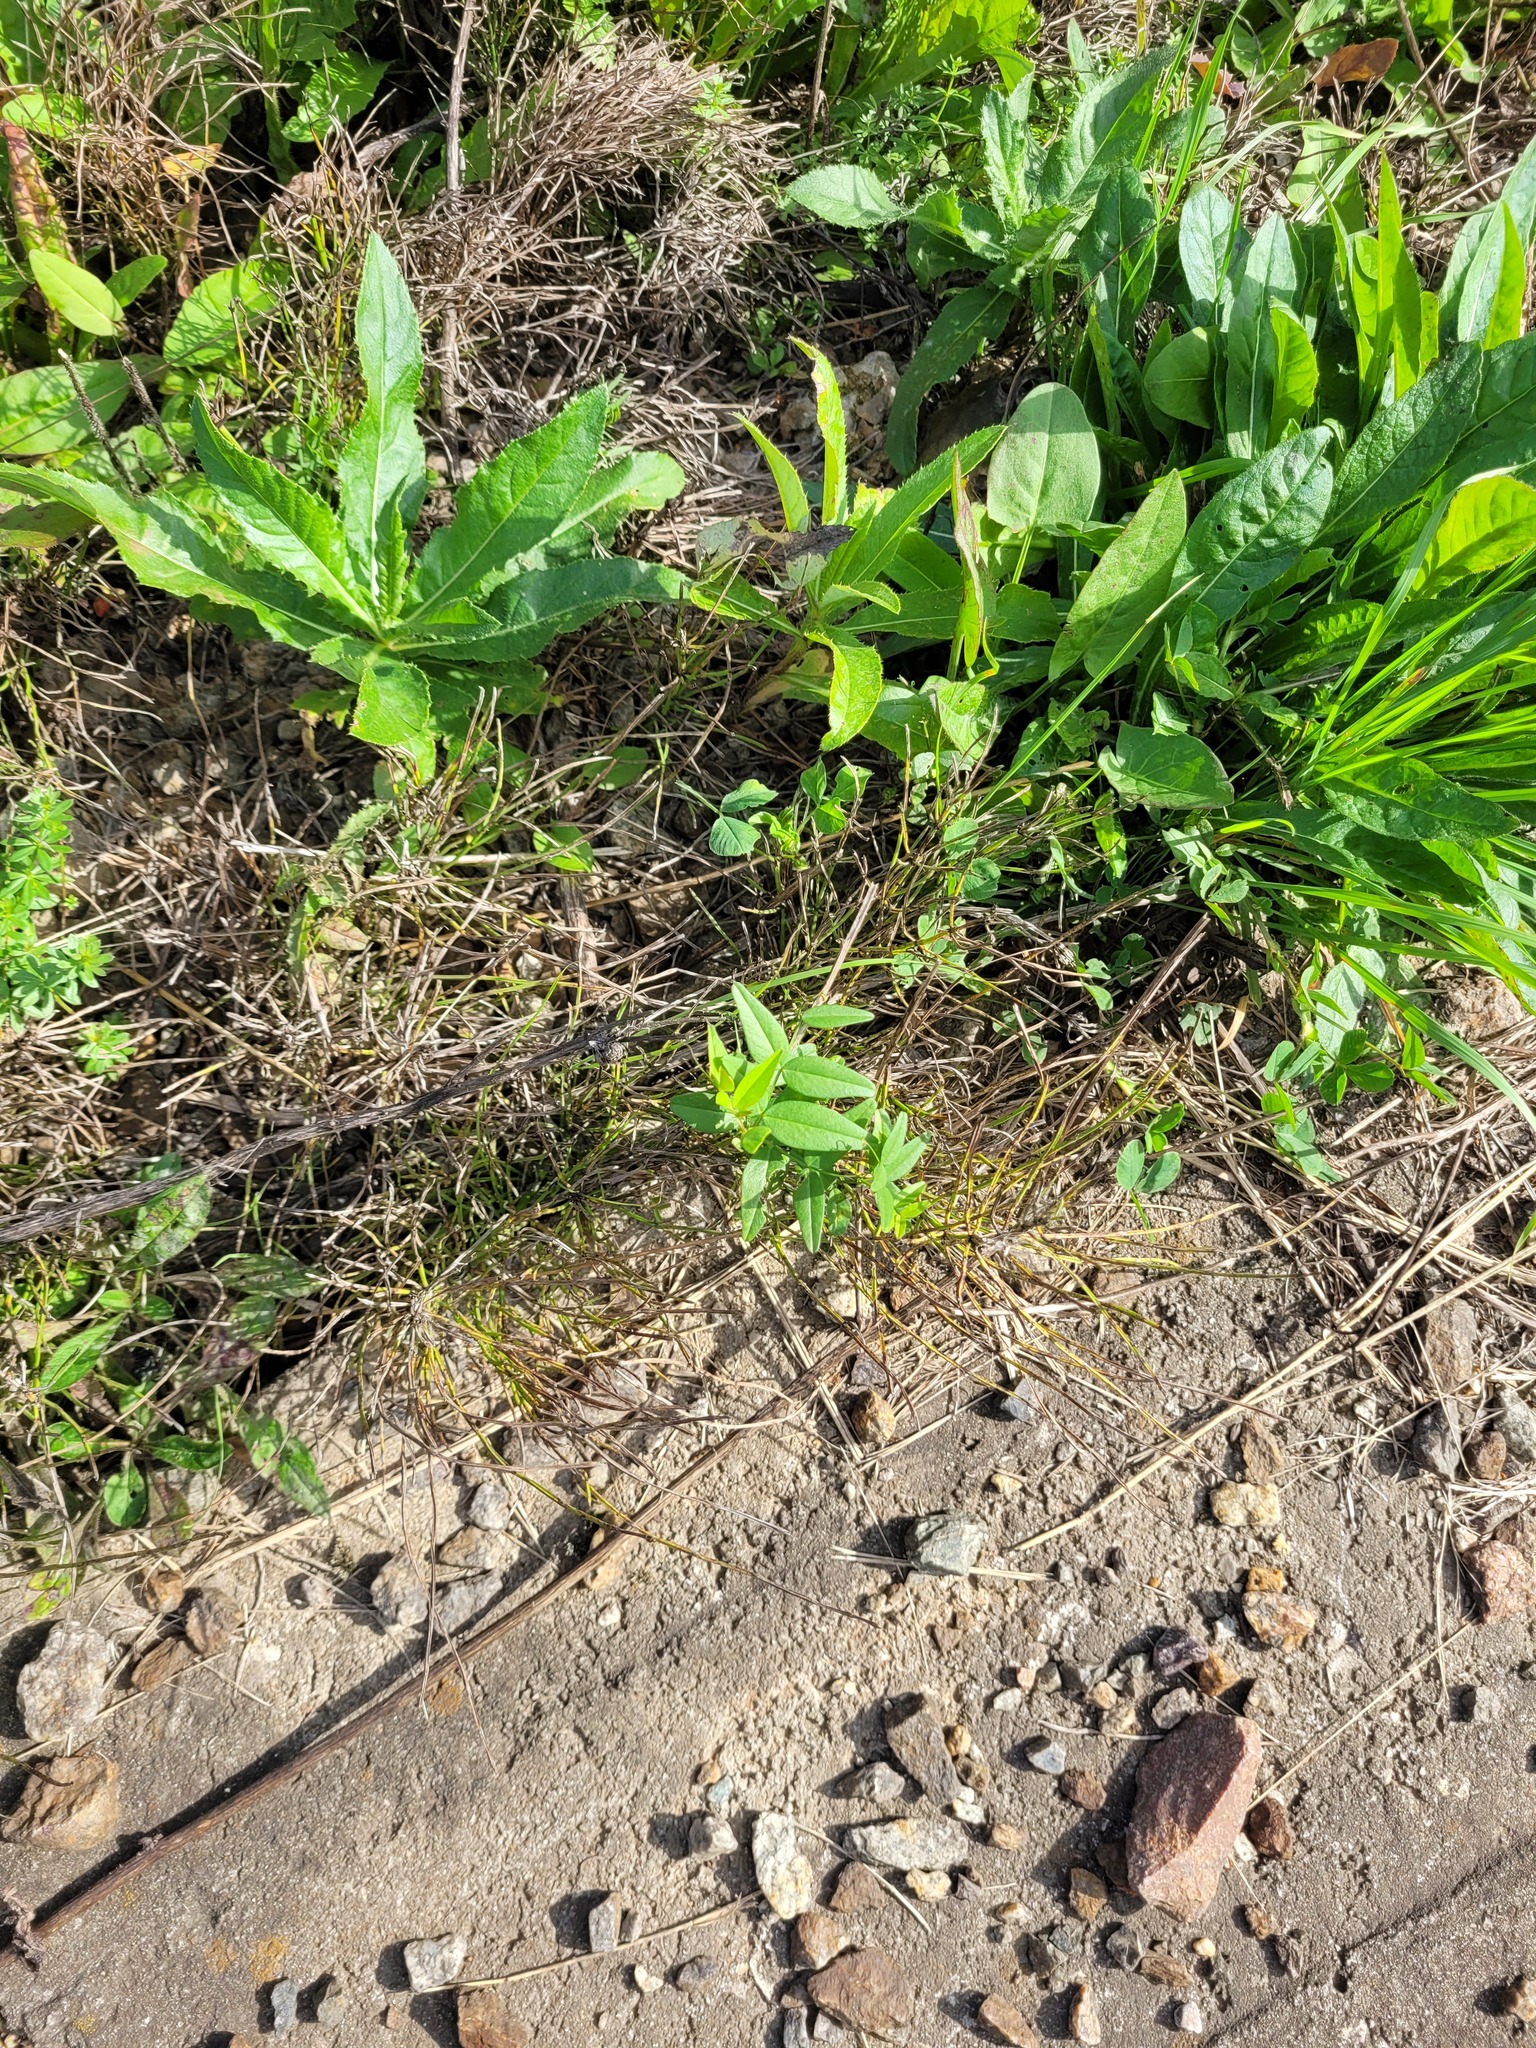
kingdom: Plantae
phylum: Tracheophyta
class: Magnoliopsida
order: Fabales
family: Fabaceae
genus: Vicia
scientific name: Vicia sepium
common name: Bush vetch
